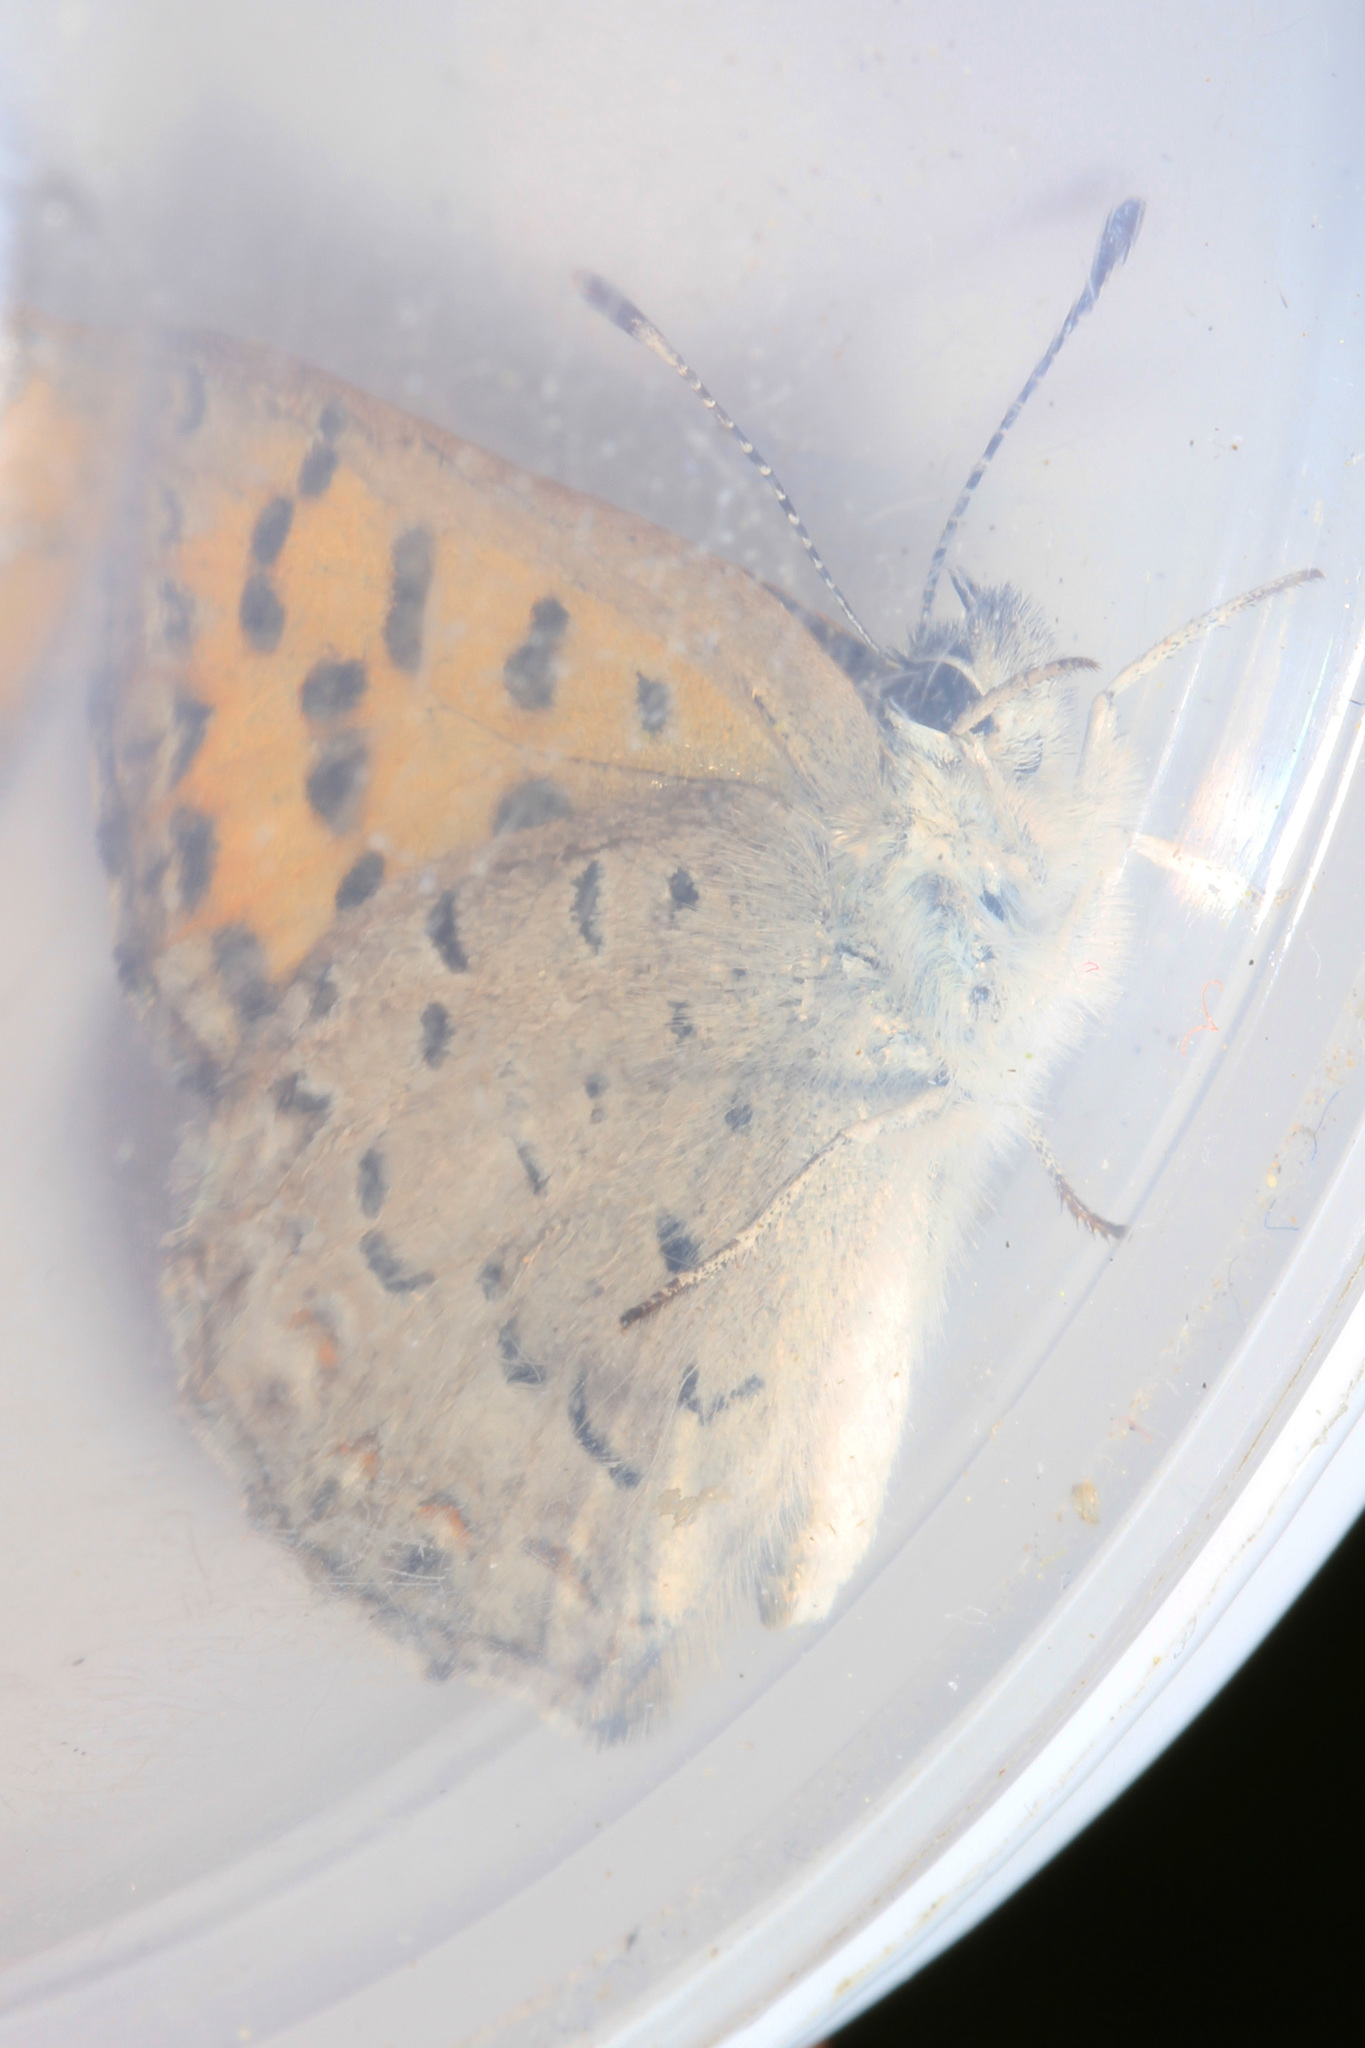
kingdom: Animalia
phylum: Arthropoda
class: Insecta
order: Lepidoptera
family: Lycaenidae
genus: Tharsalea
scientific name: Tharsalea mariposa
